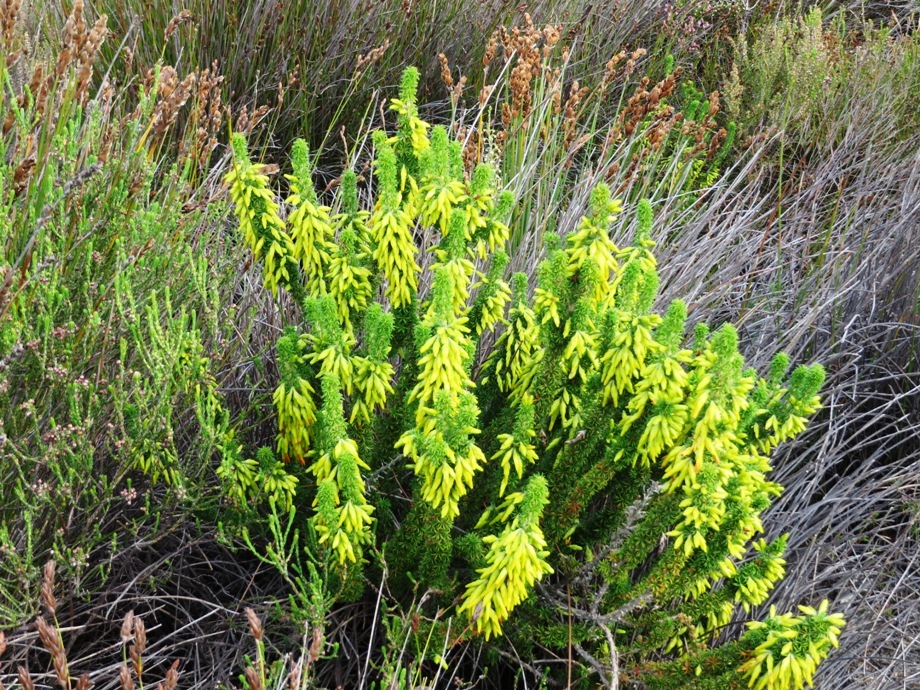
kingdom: Plantae
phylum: Tracheophyta
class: Magnoliopsida
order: Ericales
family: Ericaceae
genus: Erica
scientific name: Erica coccinea
